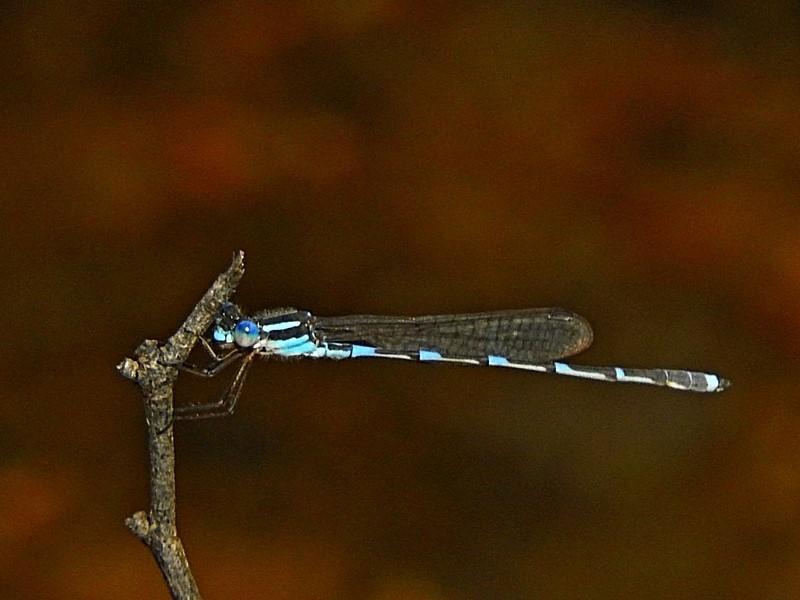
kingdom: Animalia
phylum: Arthropoda
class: Insecta
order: Odonata
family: Lestidae
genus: Austrolestes
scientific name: Austrolestes leda
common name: Wandering ringtail
